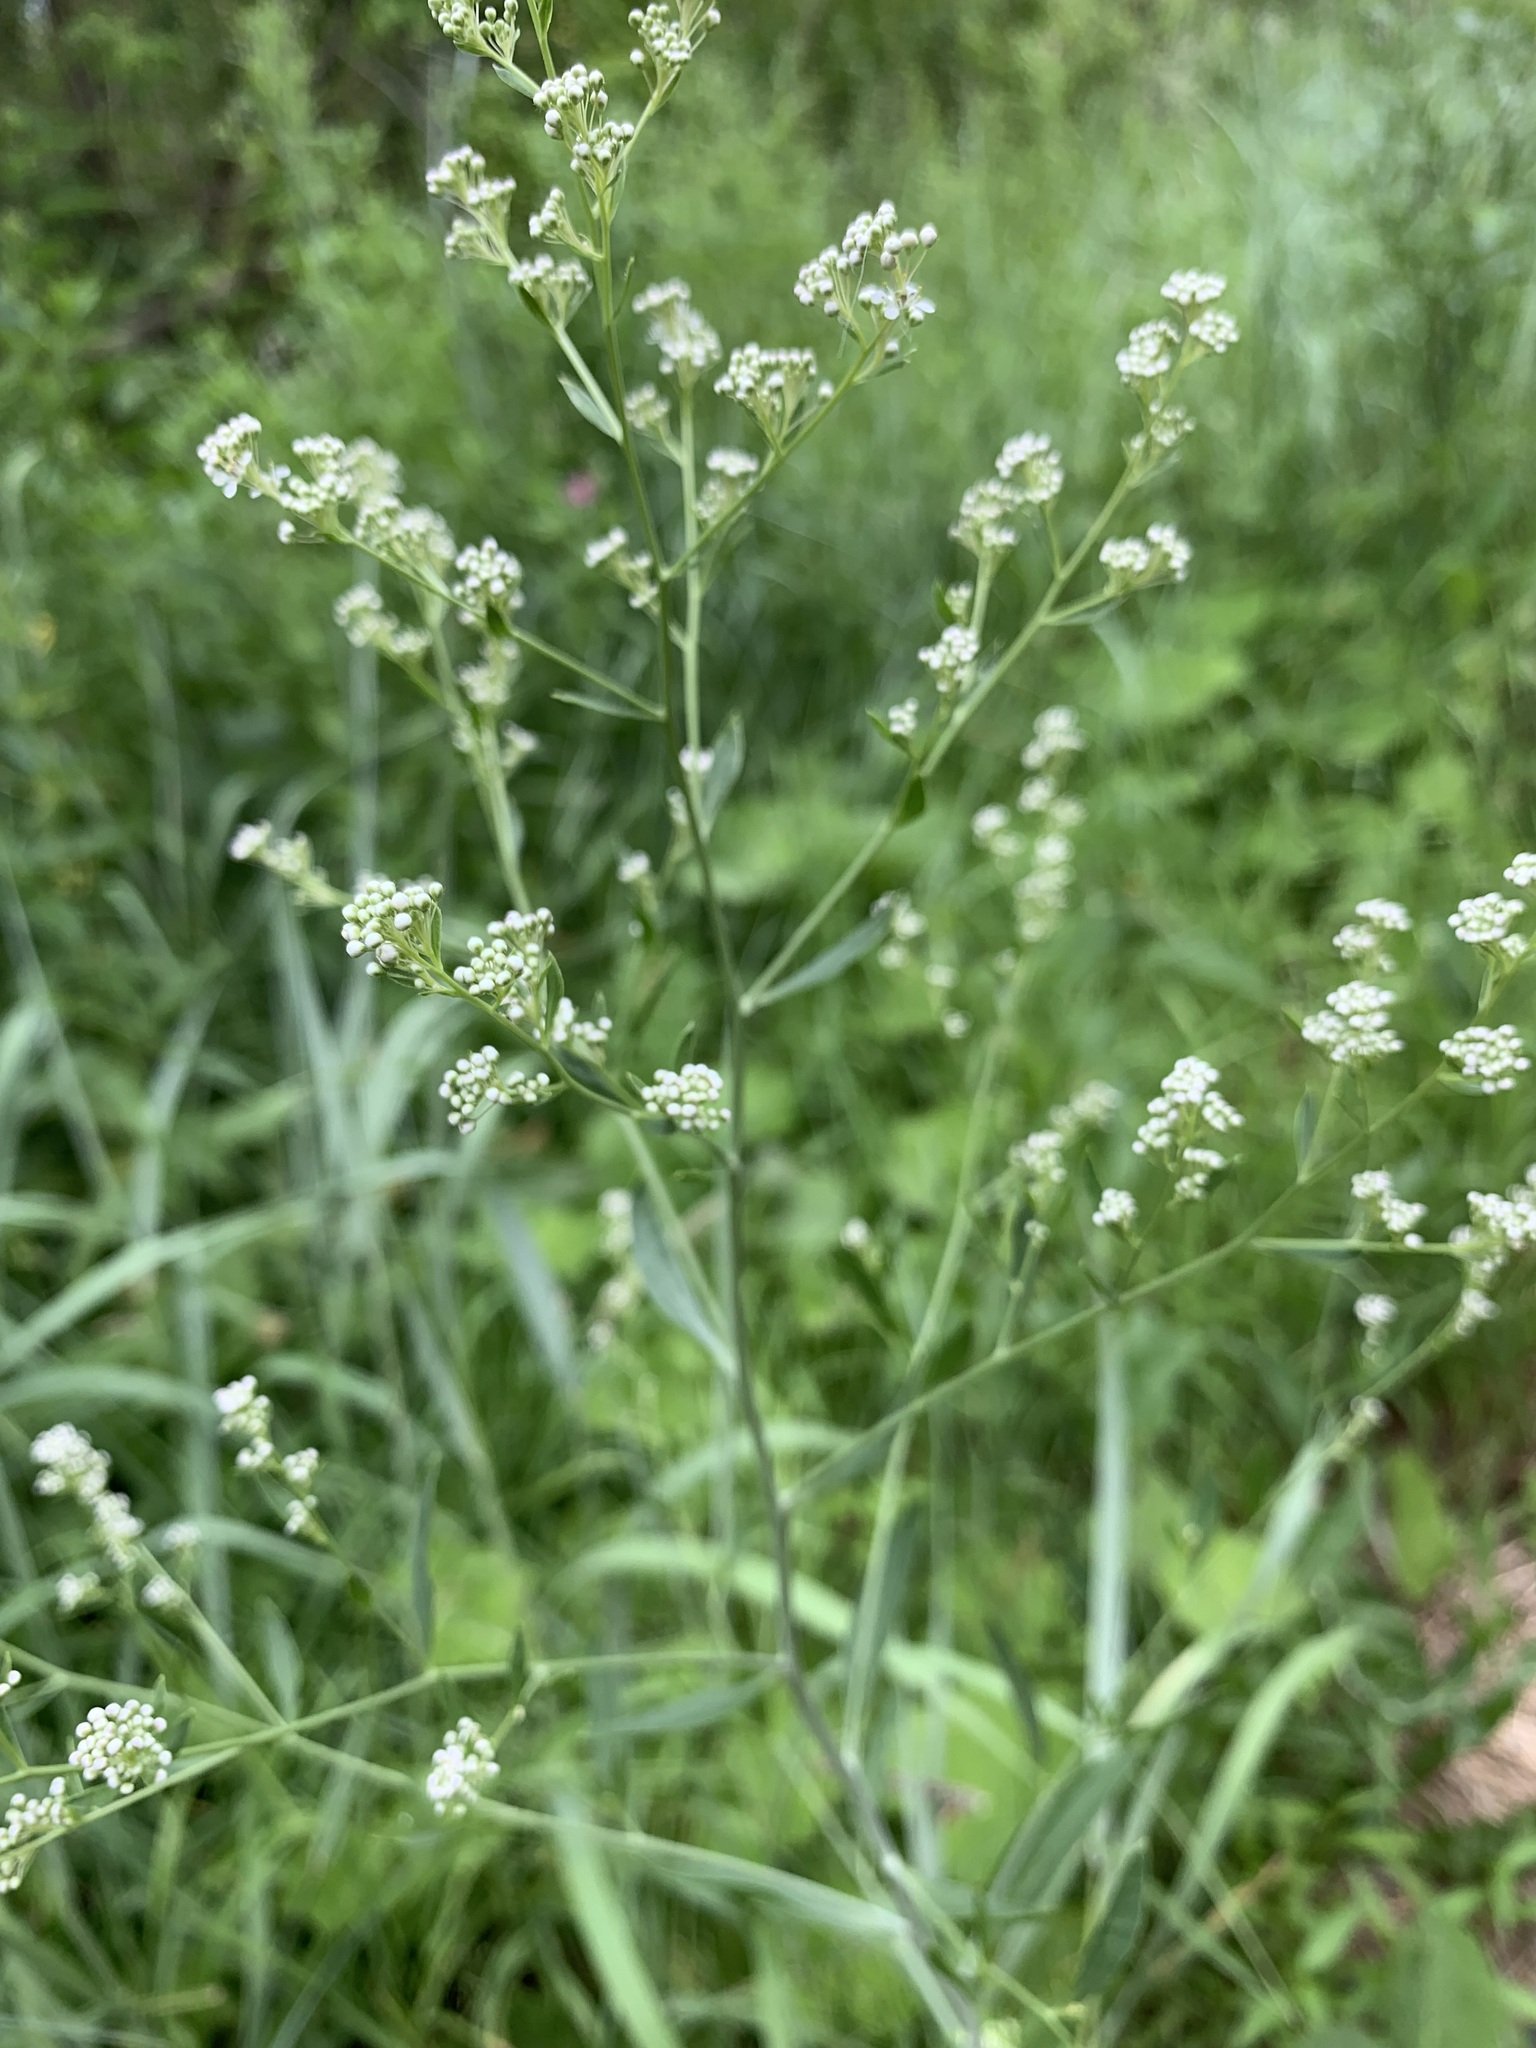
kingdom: Plantae
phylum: Tracheophyta
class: Magnoliopsida
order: Brassicales
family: Brassicaceae
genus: Lepidium
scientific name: Lepidium latifolium
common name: Dittander
